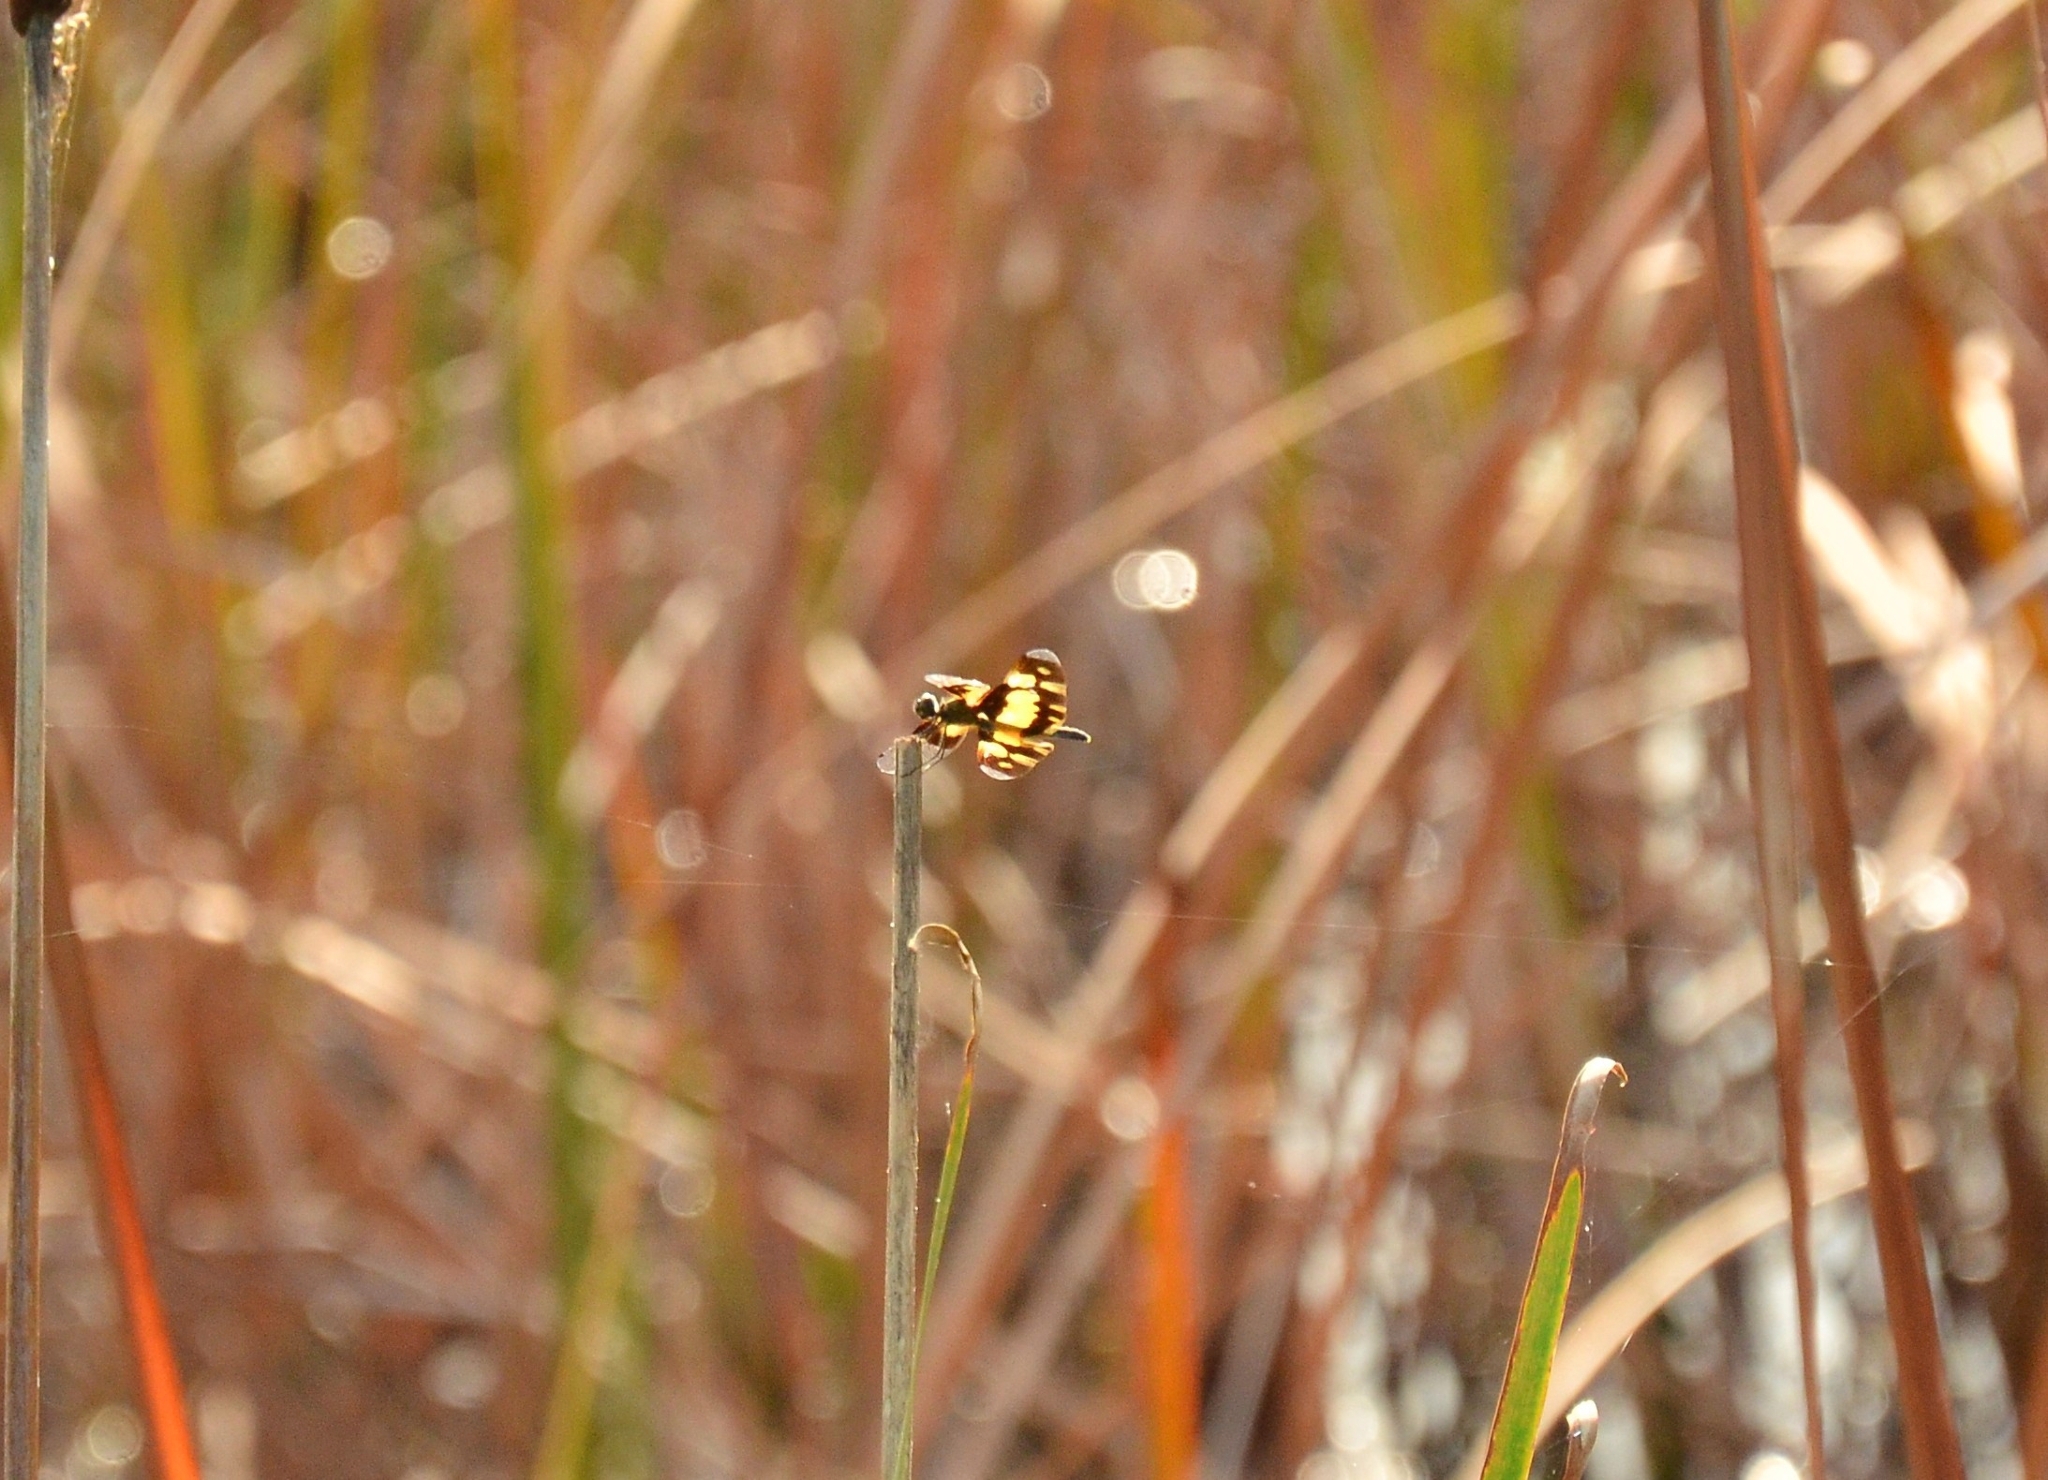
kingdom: Animalia
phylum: Arthropoda
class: Insecta
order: Odonata
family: Libellulidae
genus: Rhyothemis
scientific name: Rhyothemis variegata
